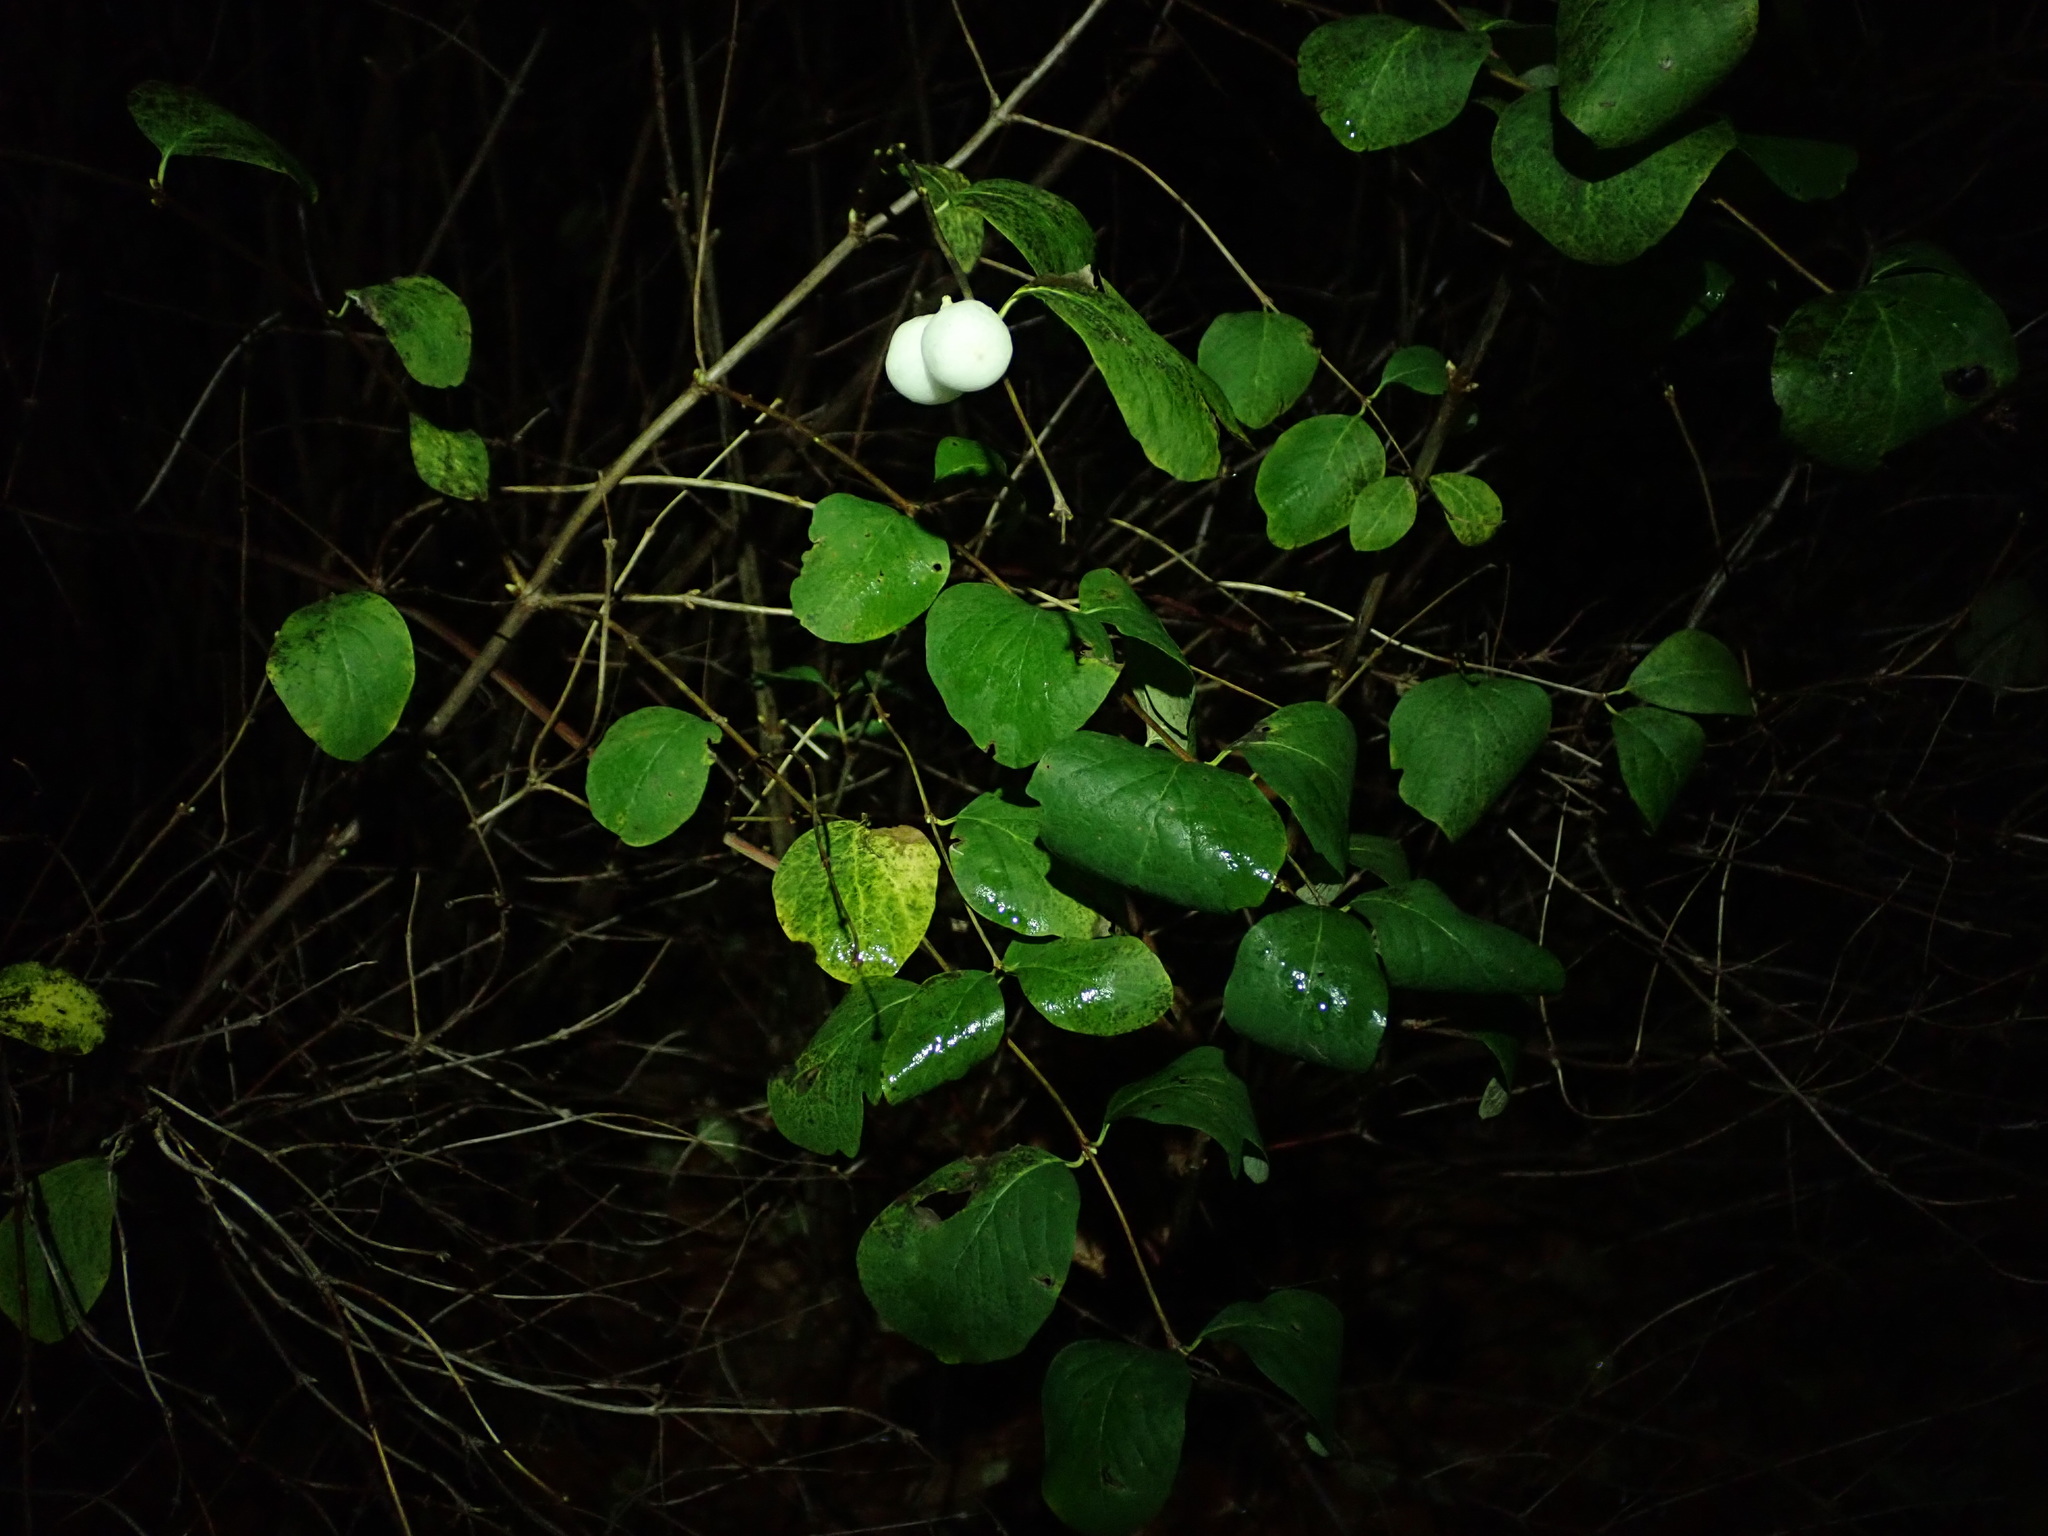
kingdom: Plantae
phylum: Tracheophyta
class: Magnoliopsida
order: Dipsacales
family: Caprifoliaceae
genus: Symphoricarpos
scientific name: Symphoricarpos albus
